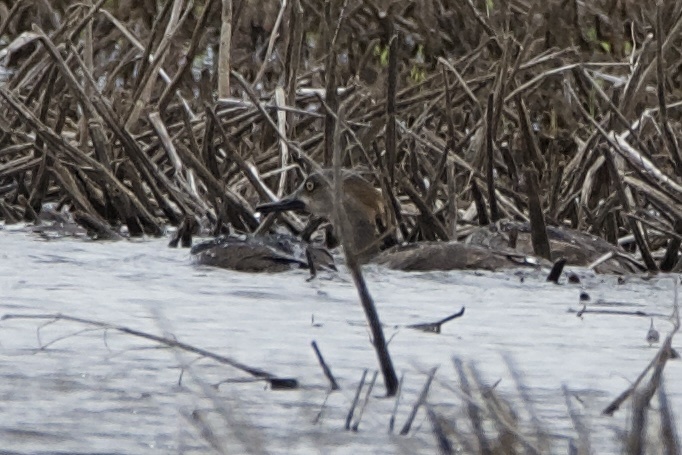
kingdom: Animalia
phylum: Chordata
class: Aves
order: Anseriformes
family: Anatidae
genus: Lophodytes
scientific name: Lophodytes cucullatus
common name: Hooded merganser
